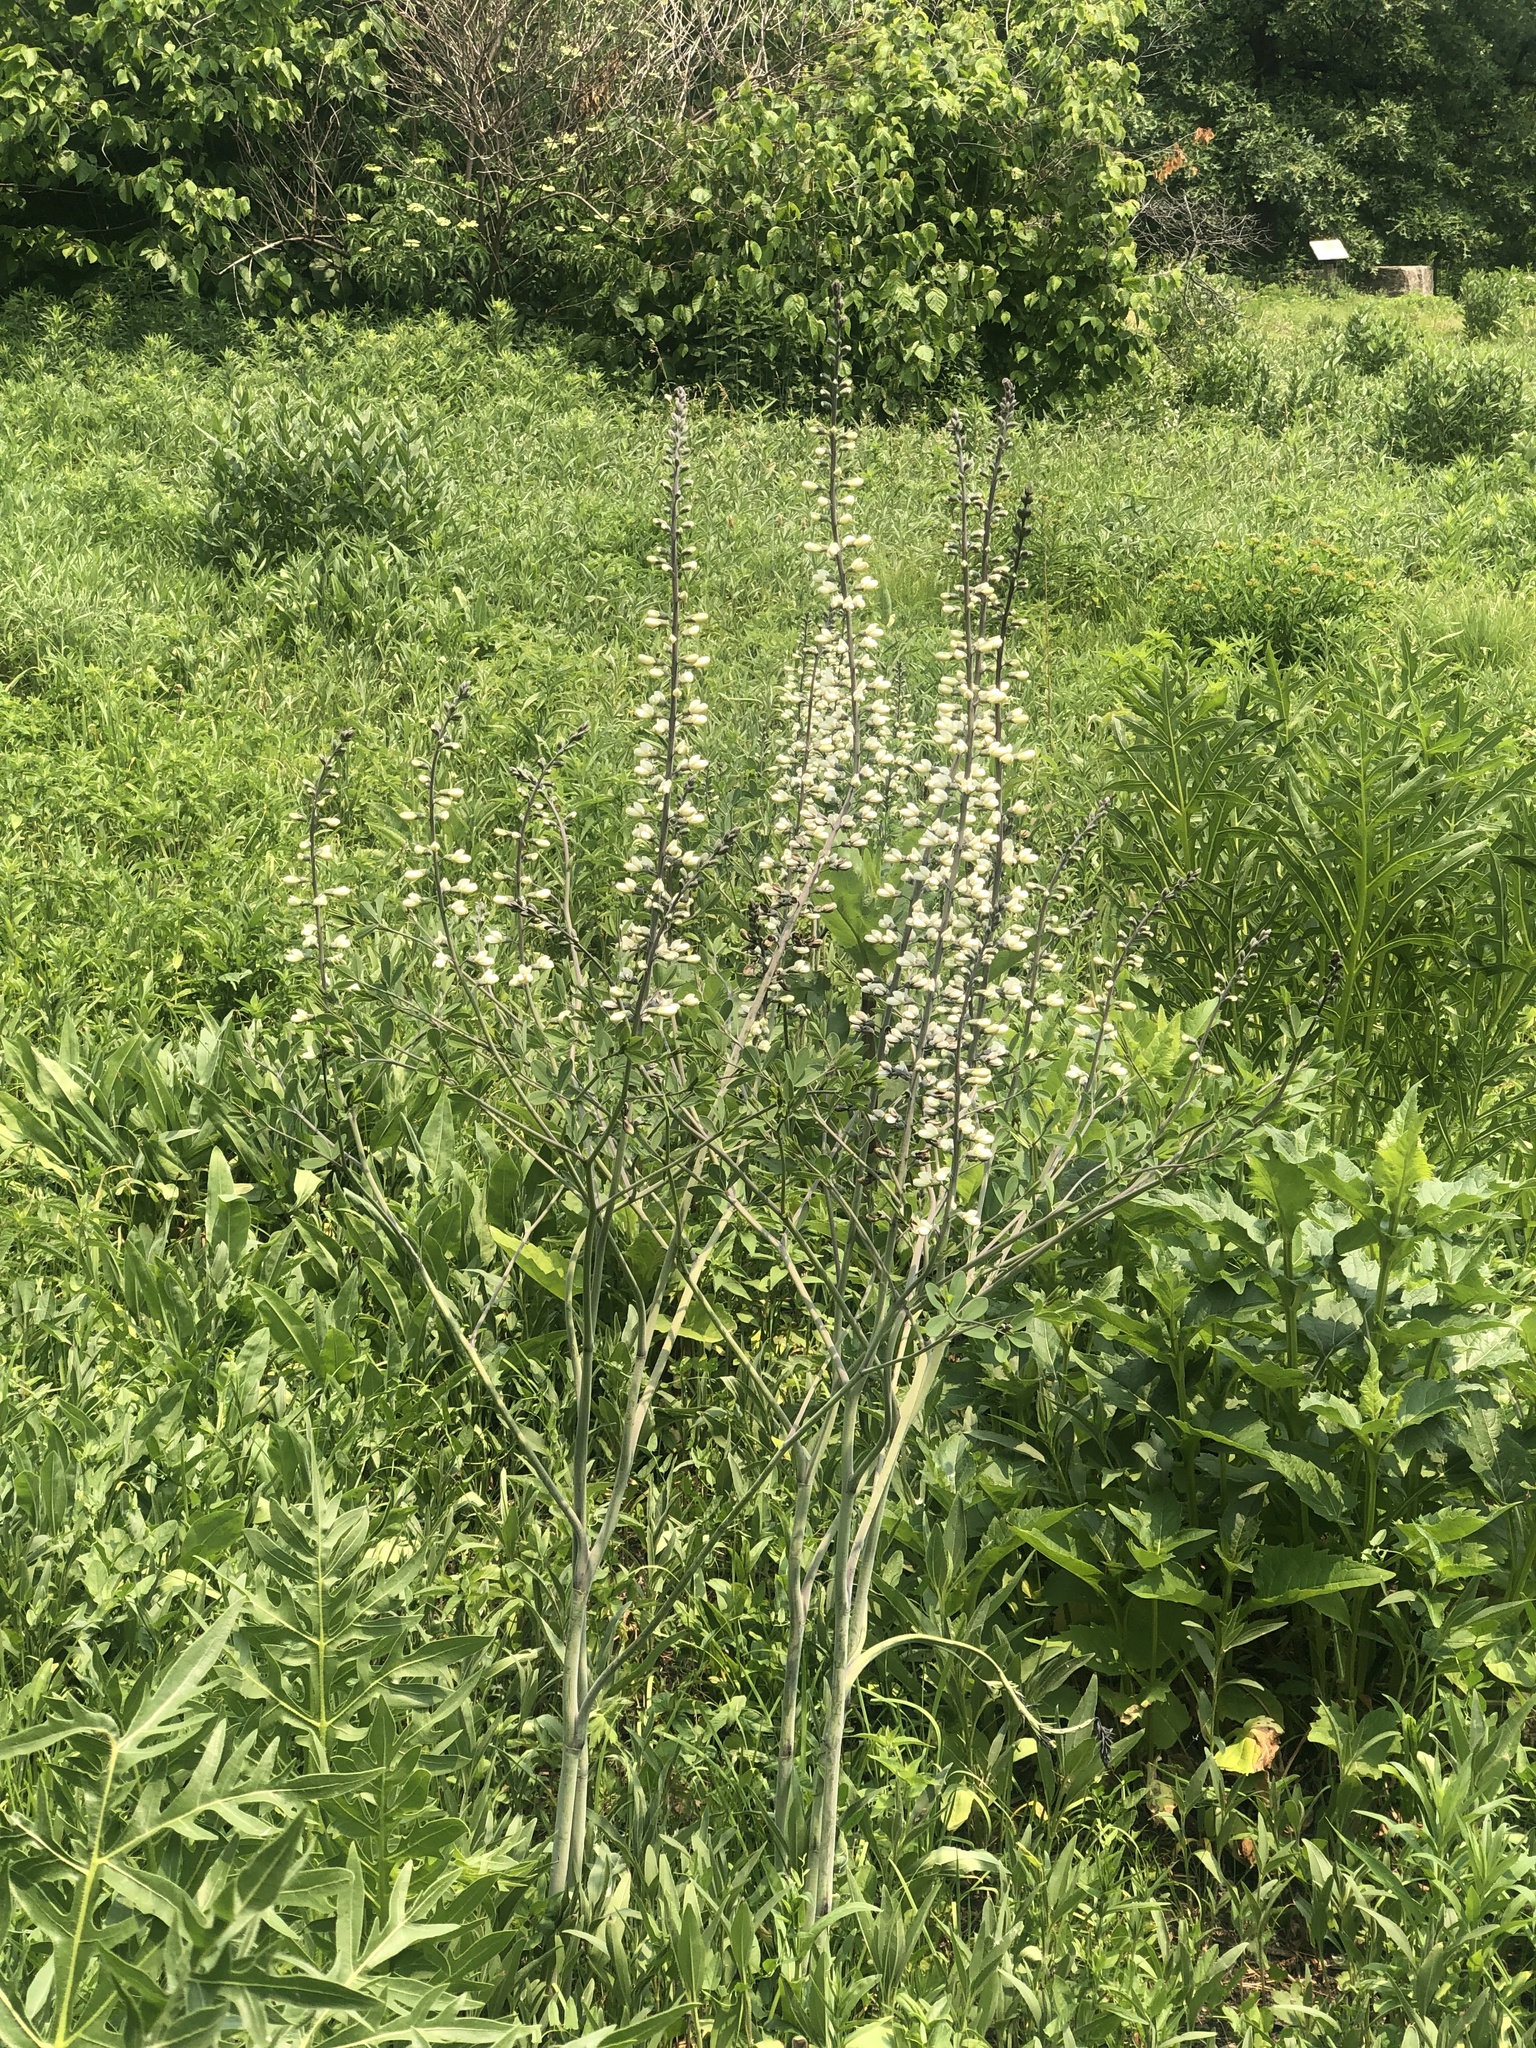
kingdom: Plantae
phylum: Tracheophyta
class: Magnoliopsida
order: Fabales
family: Fabaceae
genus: Baptisia
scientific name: Baptisia alba
